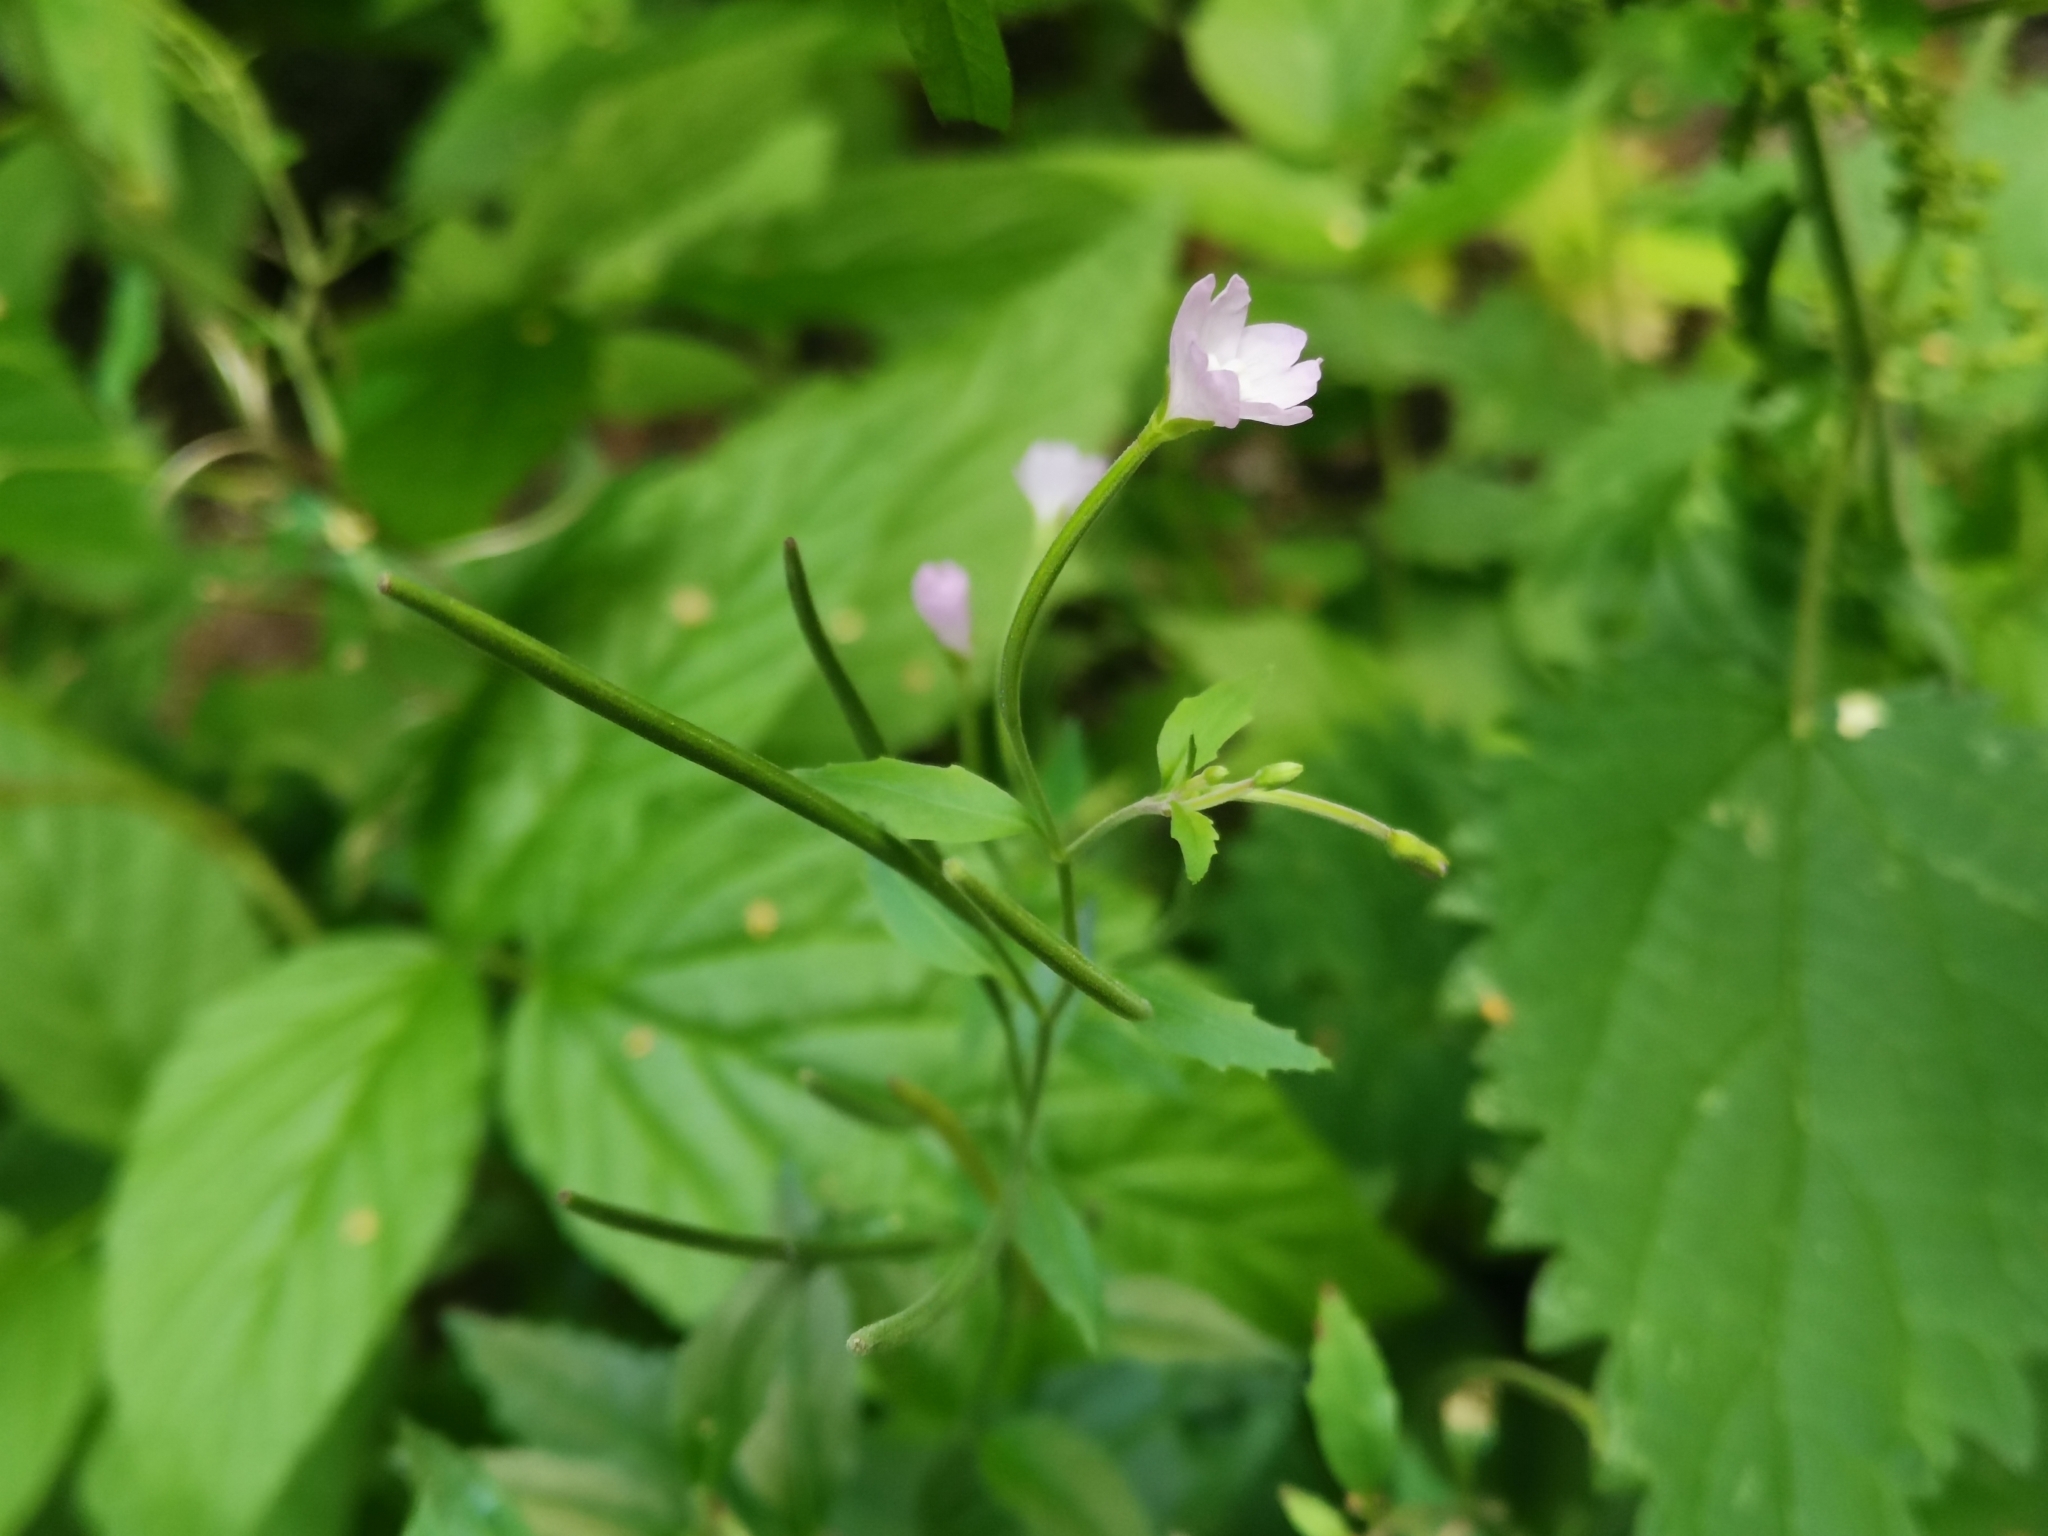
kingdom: Plantae
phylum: Tracheophyta
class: Magnoliopsida
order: Myrtales
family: Onagraceae
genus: Epilobium
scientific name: Epilobium montanum
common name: Broad-leaved willowherb
